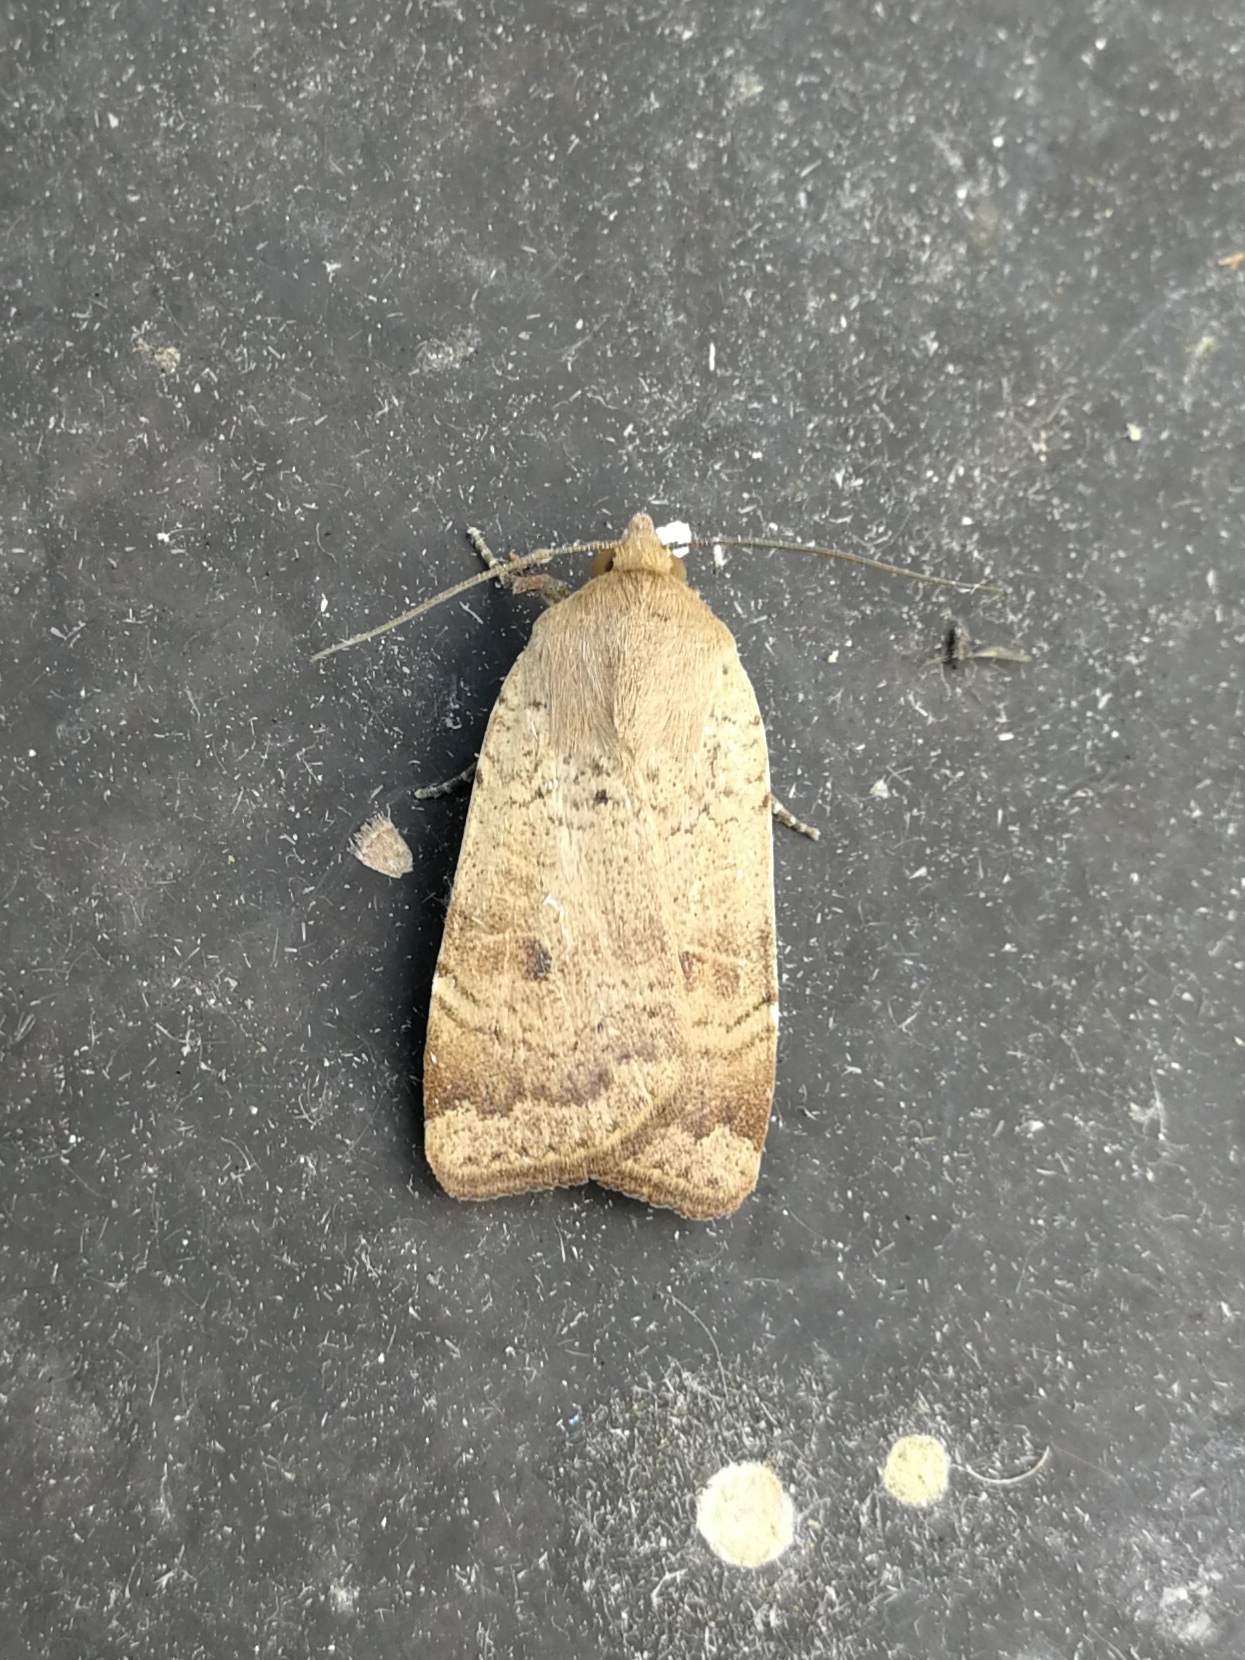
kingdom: Animalia
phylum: Arthropoda
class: Insecta
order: Lepidoptera
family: Noctuidae
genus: Noctua
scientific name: Noctua comes
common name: Lesser yellow underwing
